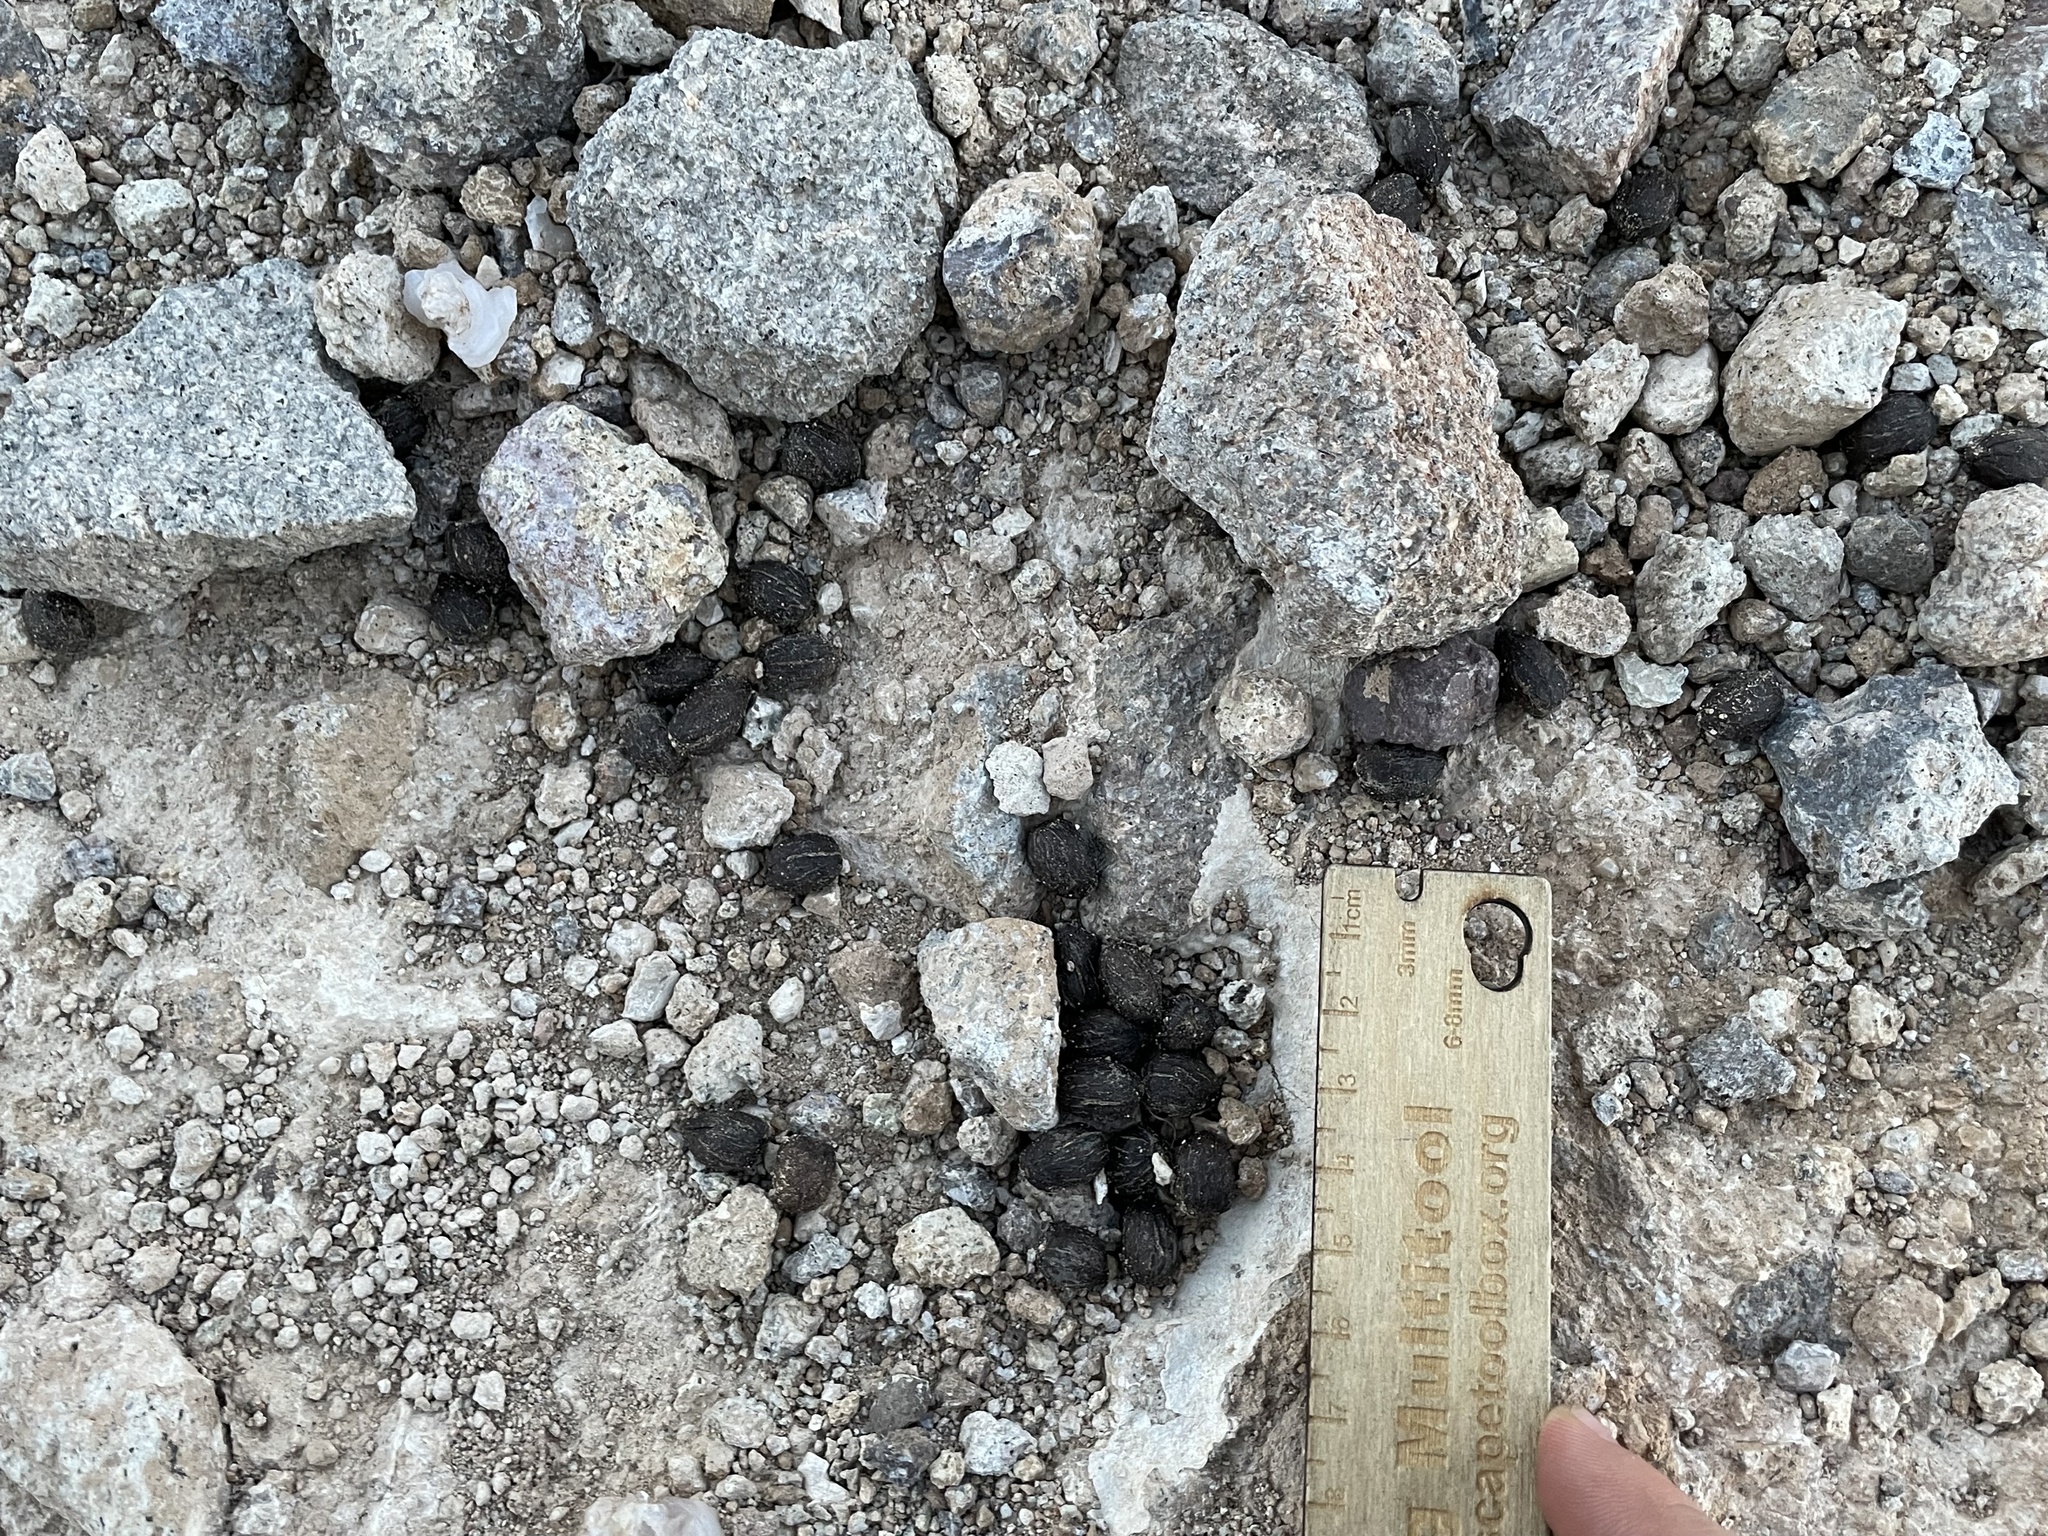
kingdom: Animalia
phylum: Chordata
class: Mammalia
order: Artiodactyla
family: Bovidae
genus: Ovis
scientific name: Ovis canadensis
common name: Bighorn sheep
